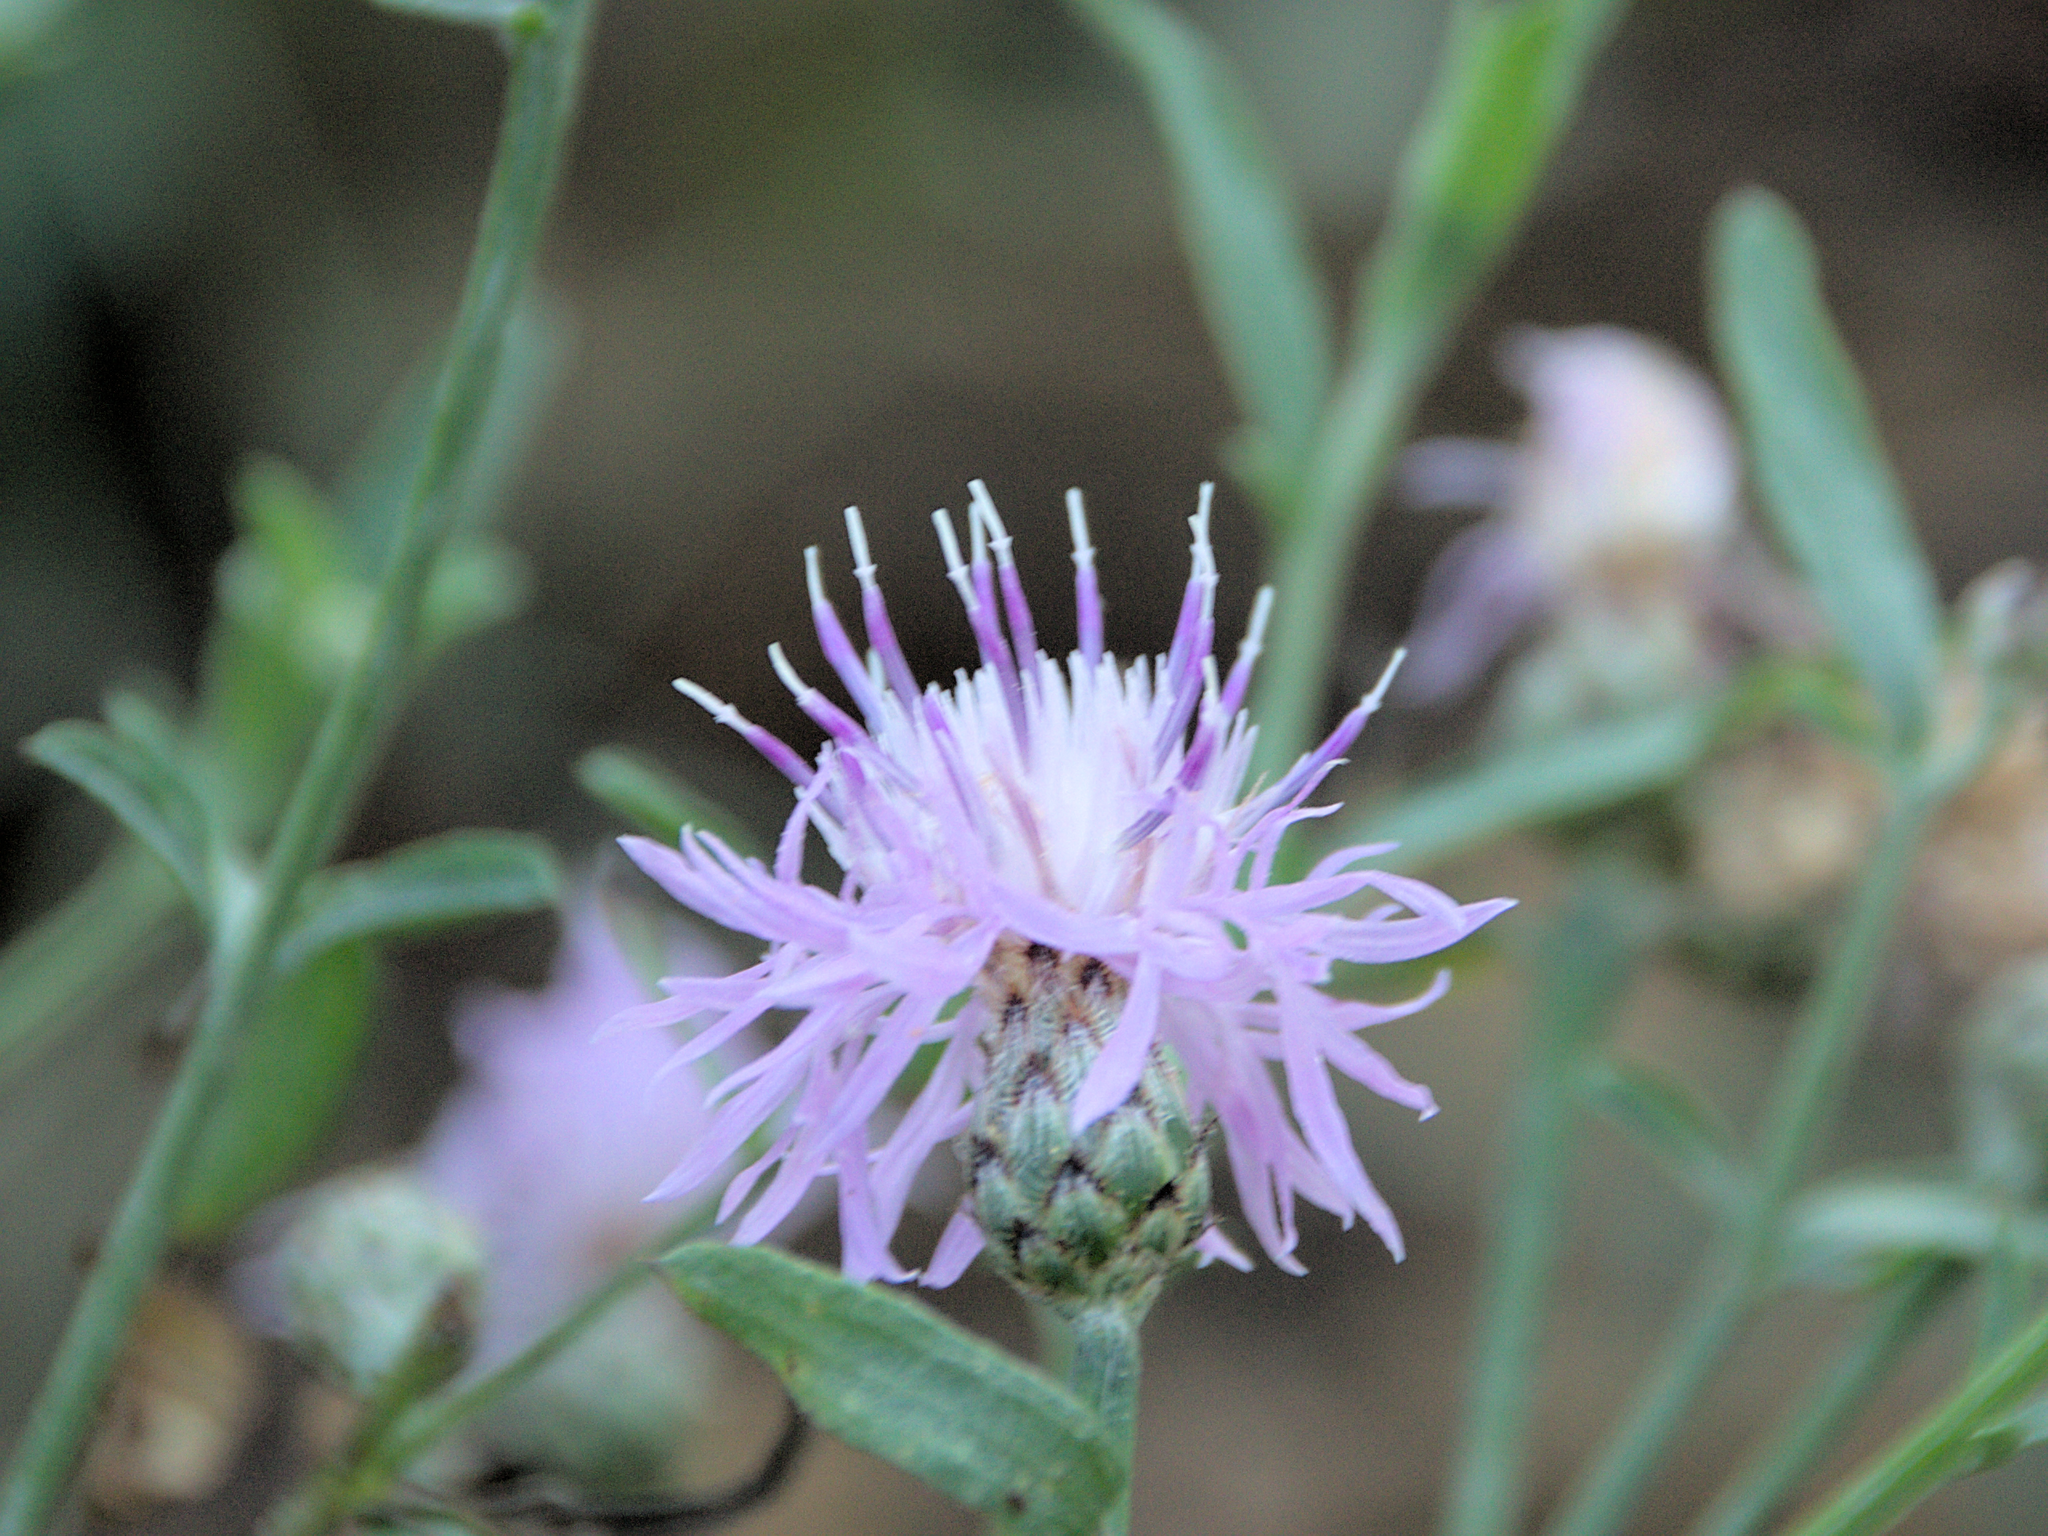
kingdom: Plantae
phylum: Tracheophyta
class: Magnoliopsida
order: Asterales
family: Asteraceae
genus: Centaurea
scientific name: Centaurea stoebe
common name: Spotted knapweed
